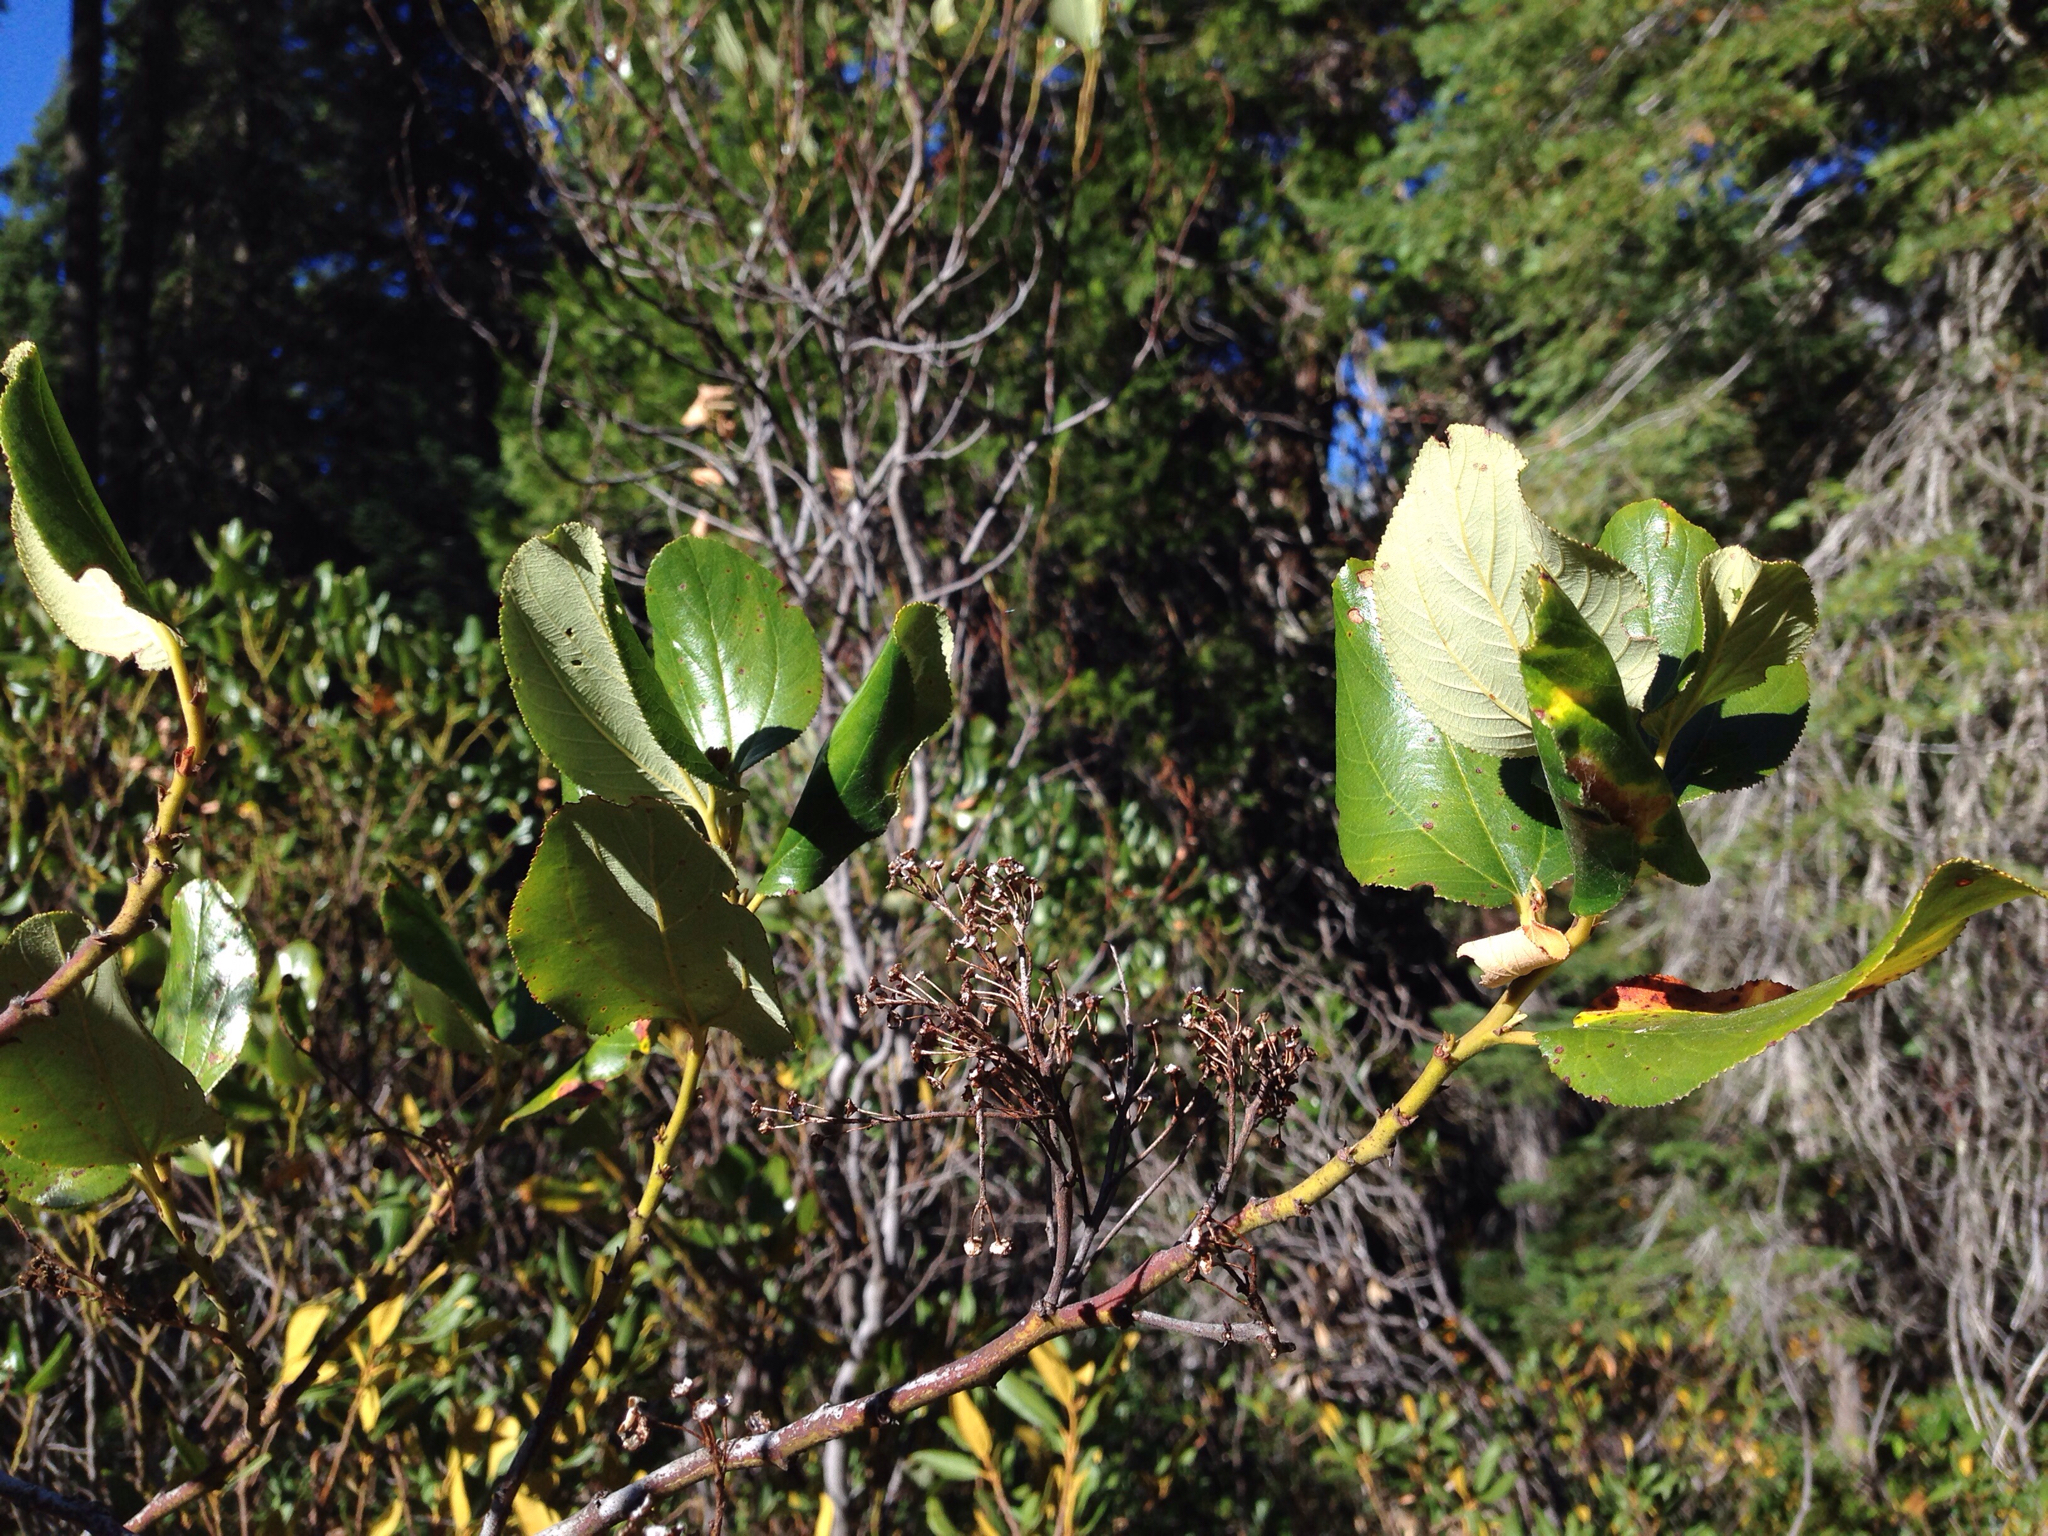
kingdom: Plantae
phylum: Tracheophyta
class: Magnoliopsida
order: Rosales
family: Rhamnaceae
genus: Ceanothus
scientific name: Ceanothus velutinus
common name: Snowbrush
